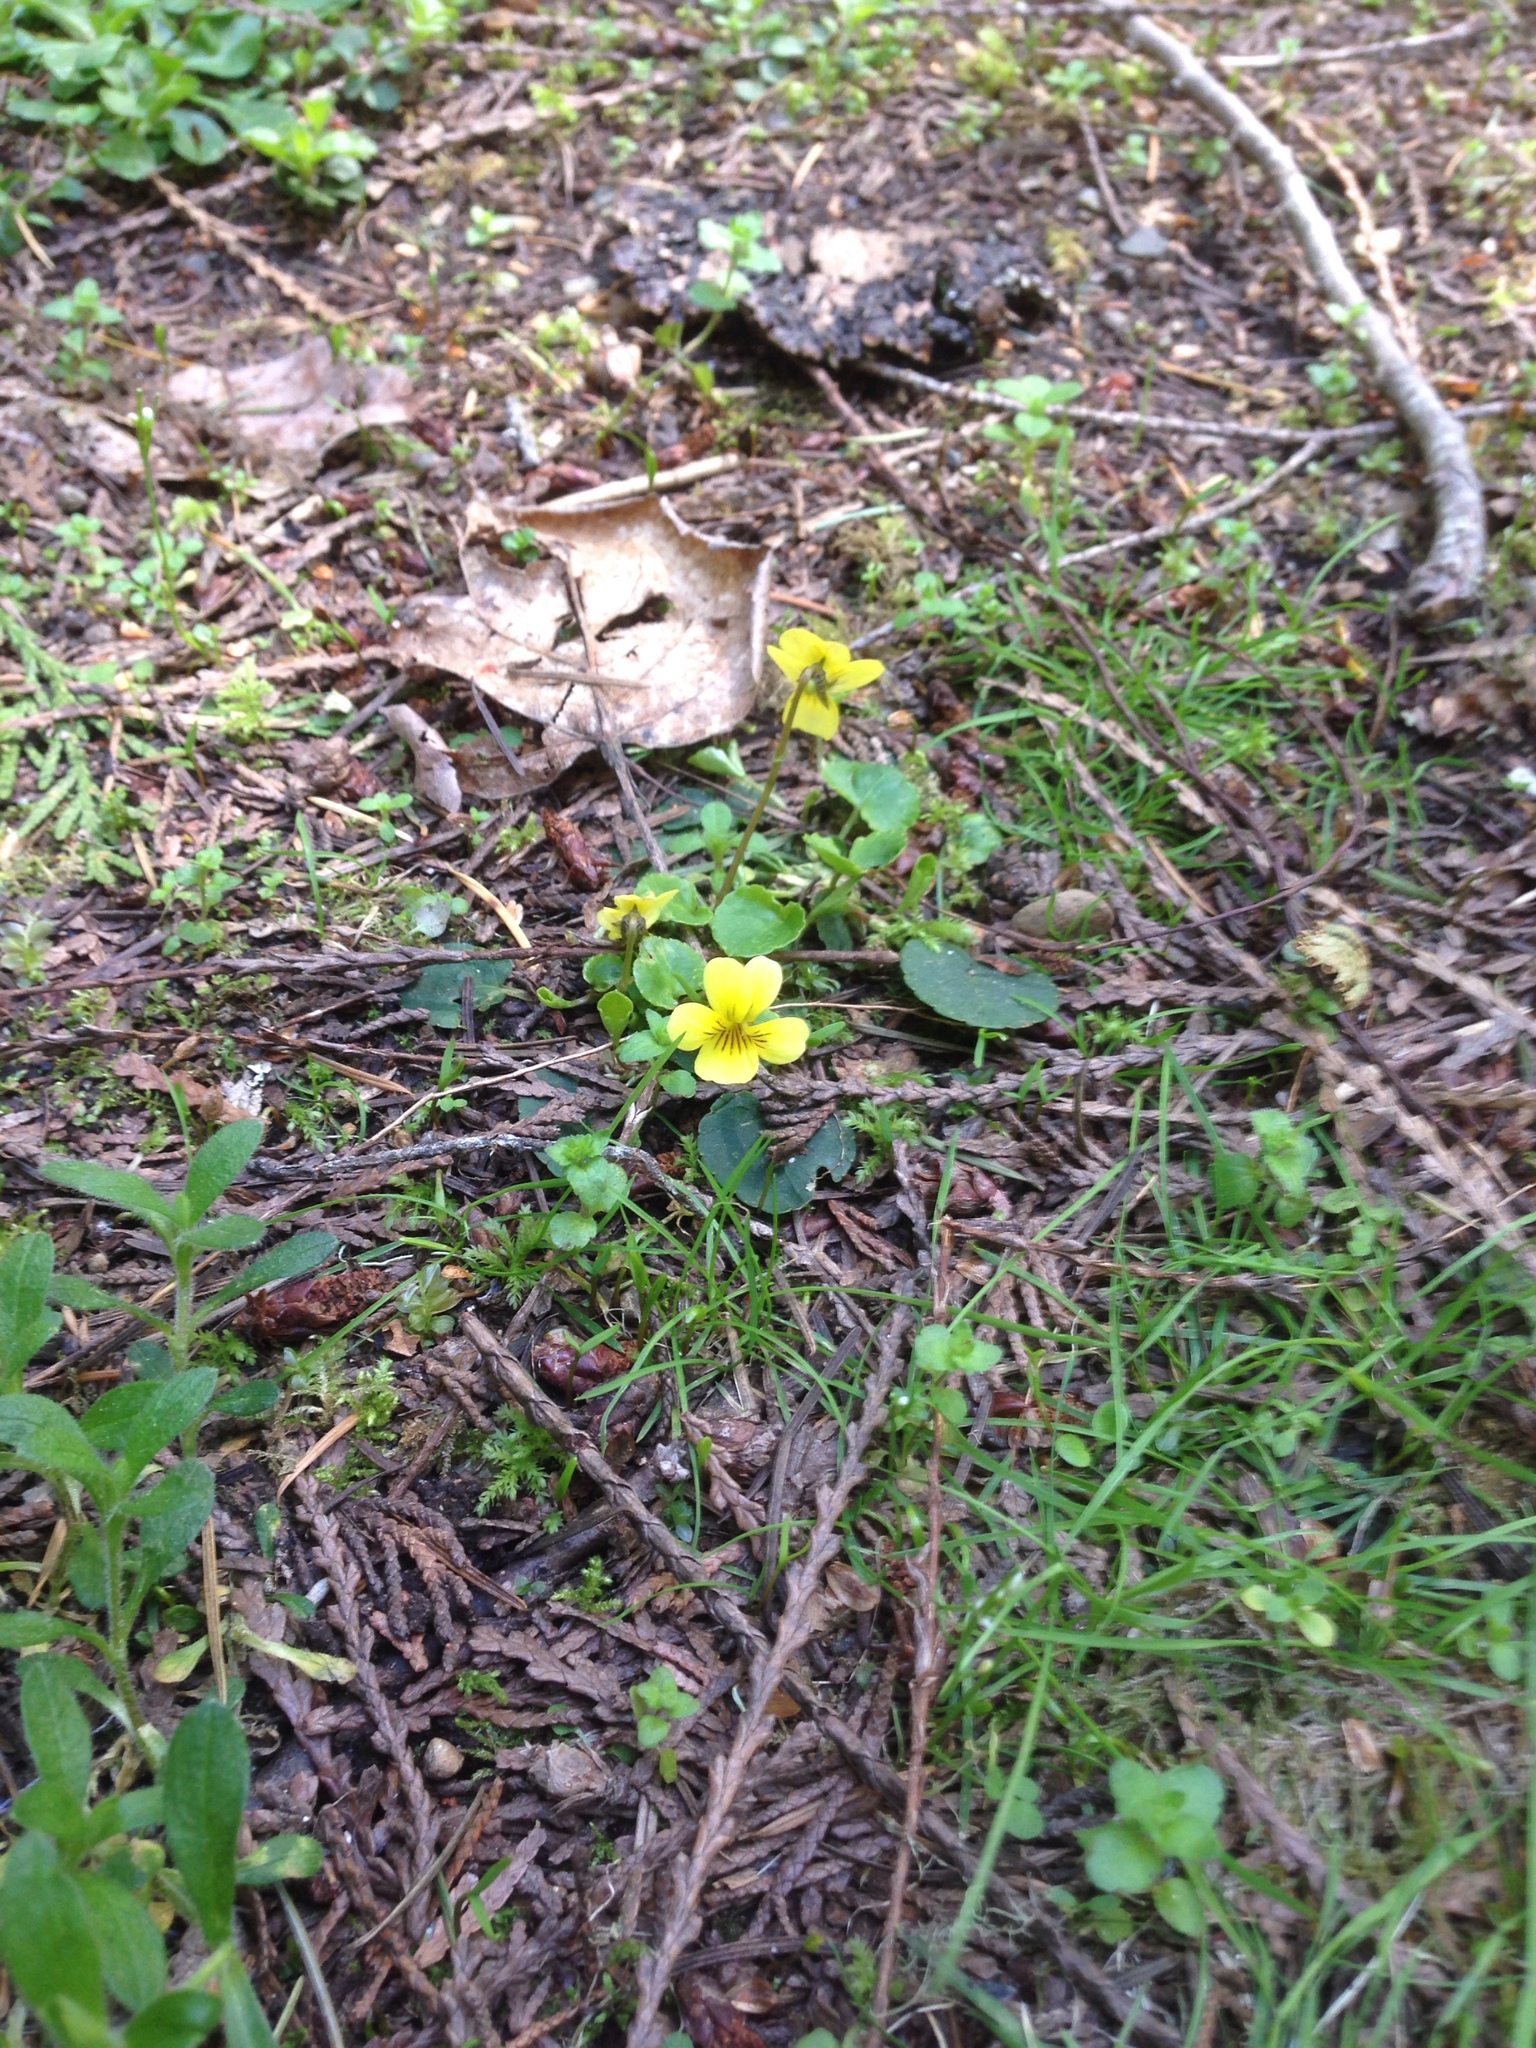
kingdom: Plantae
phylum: Tracheophyta
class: Magnoliopsida
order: Malpighiales
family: Violaceae
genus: Viola
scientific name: Viola sempervirens
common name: Evergreen violet
